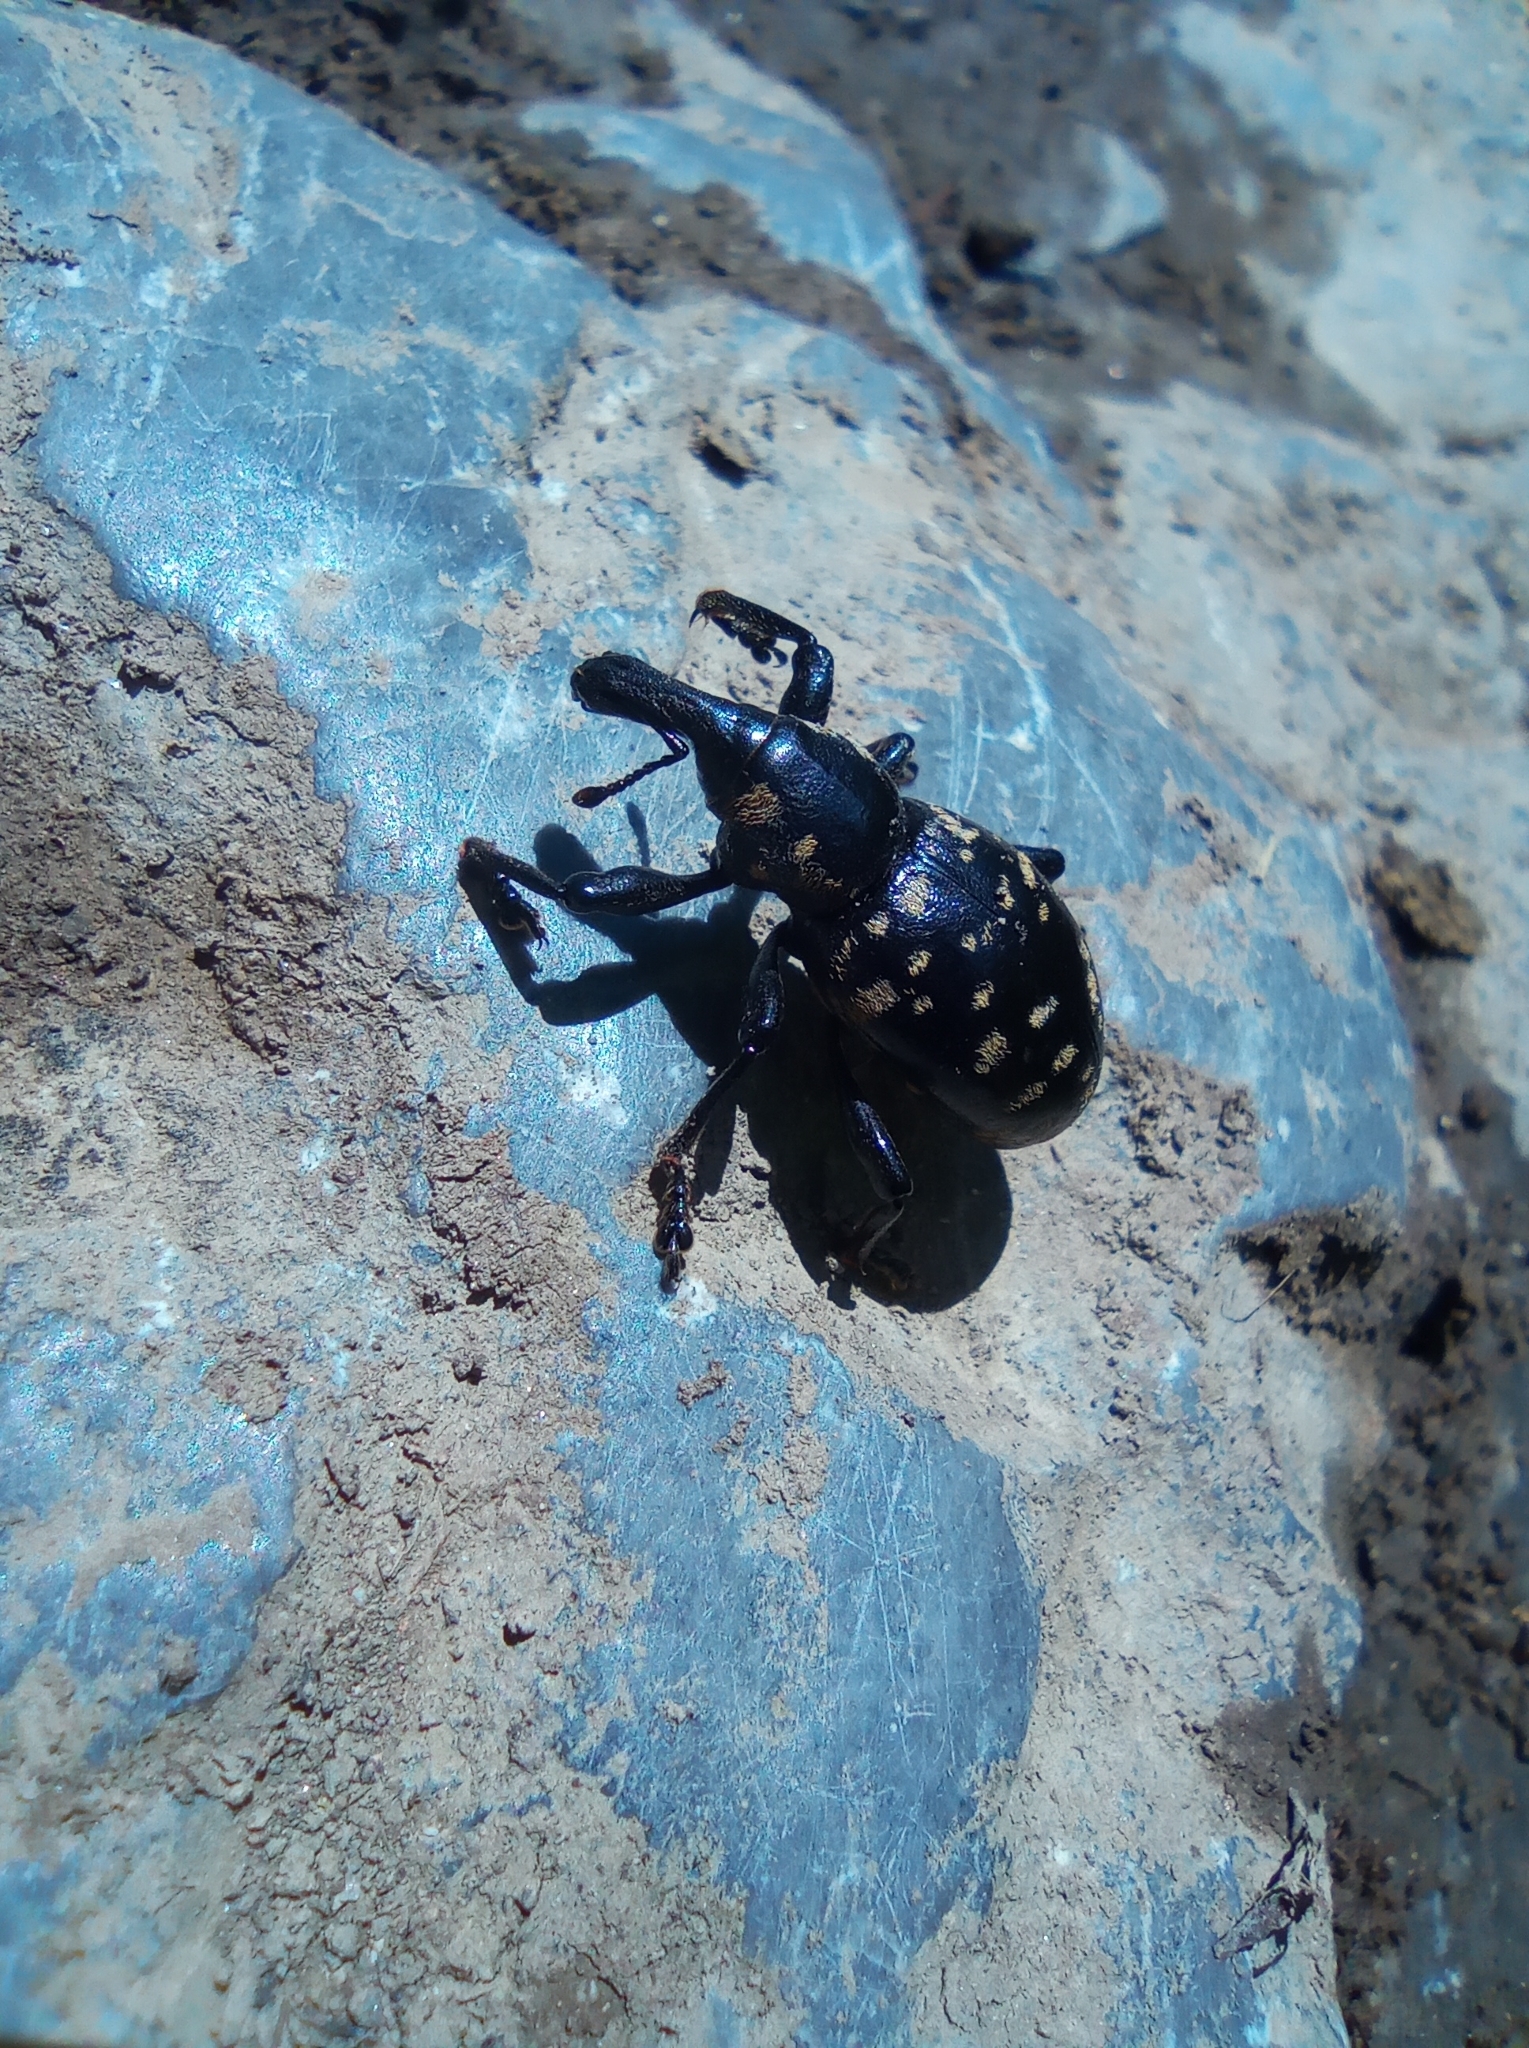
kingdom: Animalia
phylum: Arthropoda
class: Insecta
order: Coleoptera
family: Curculionidae
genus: Liparus
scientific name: Liparus glabrirostris
